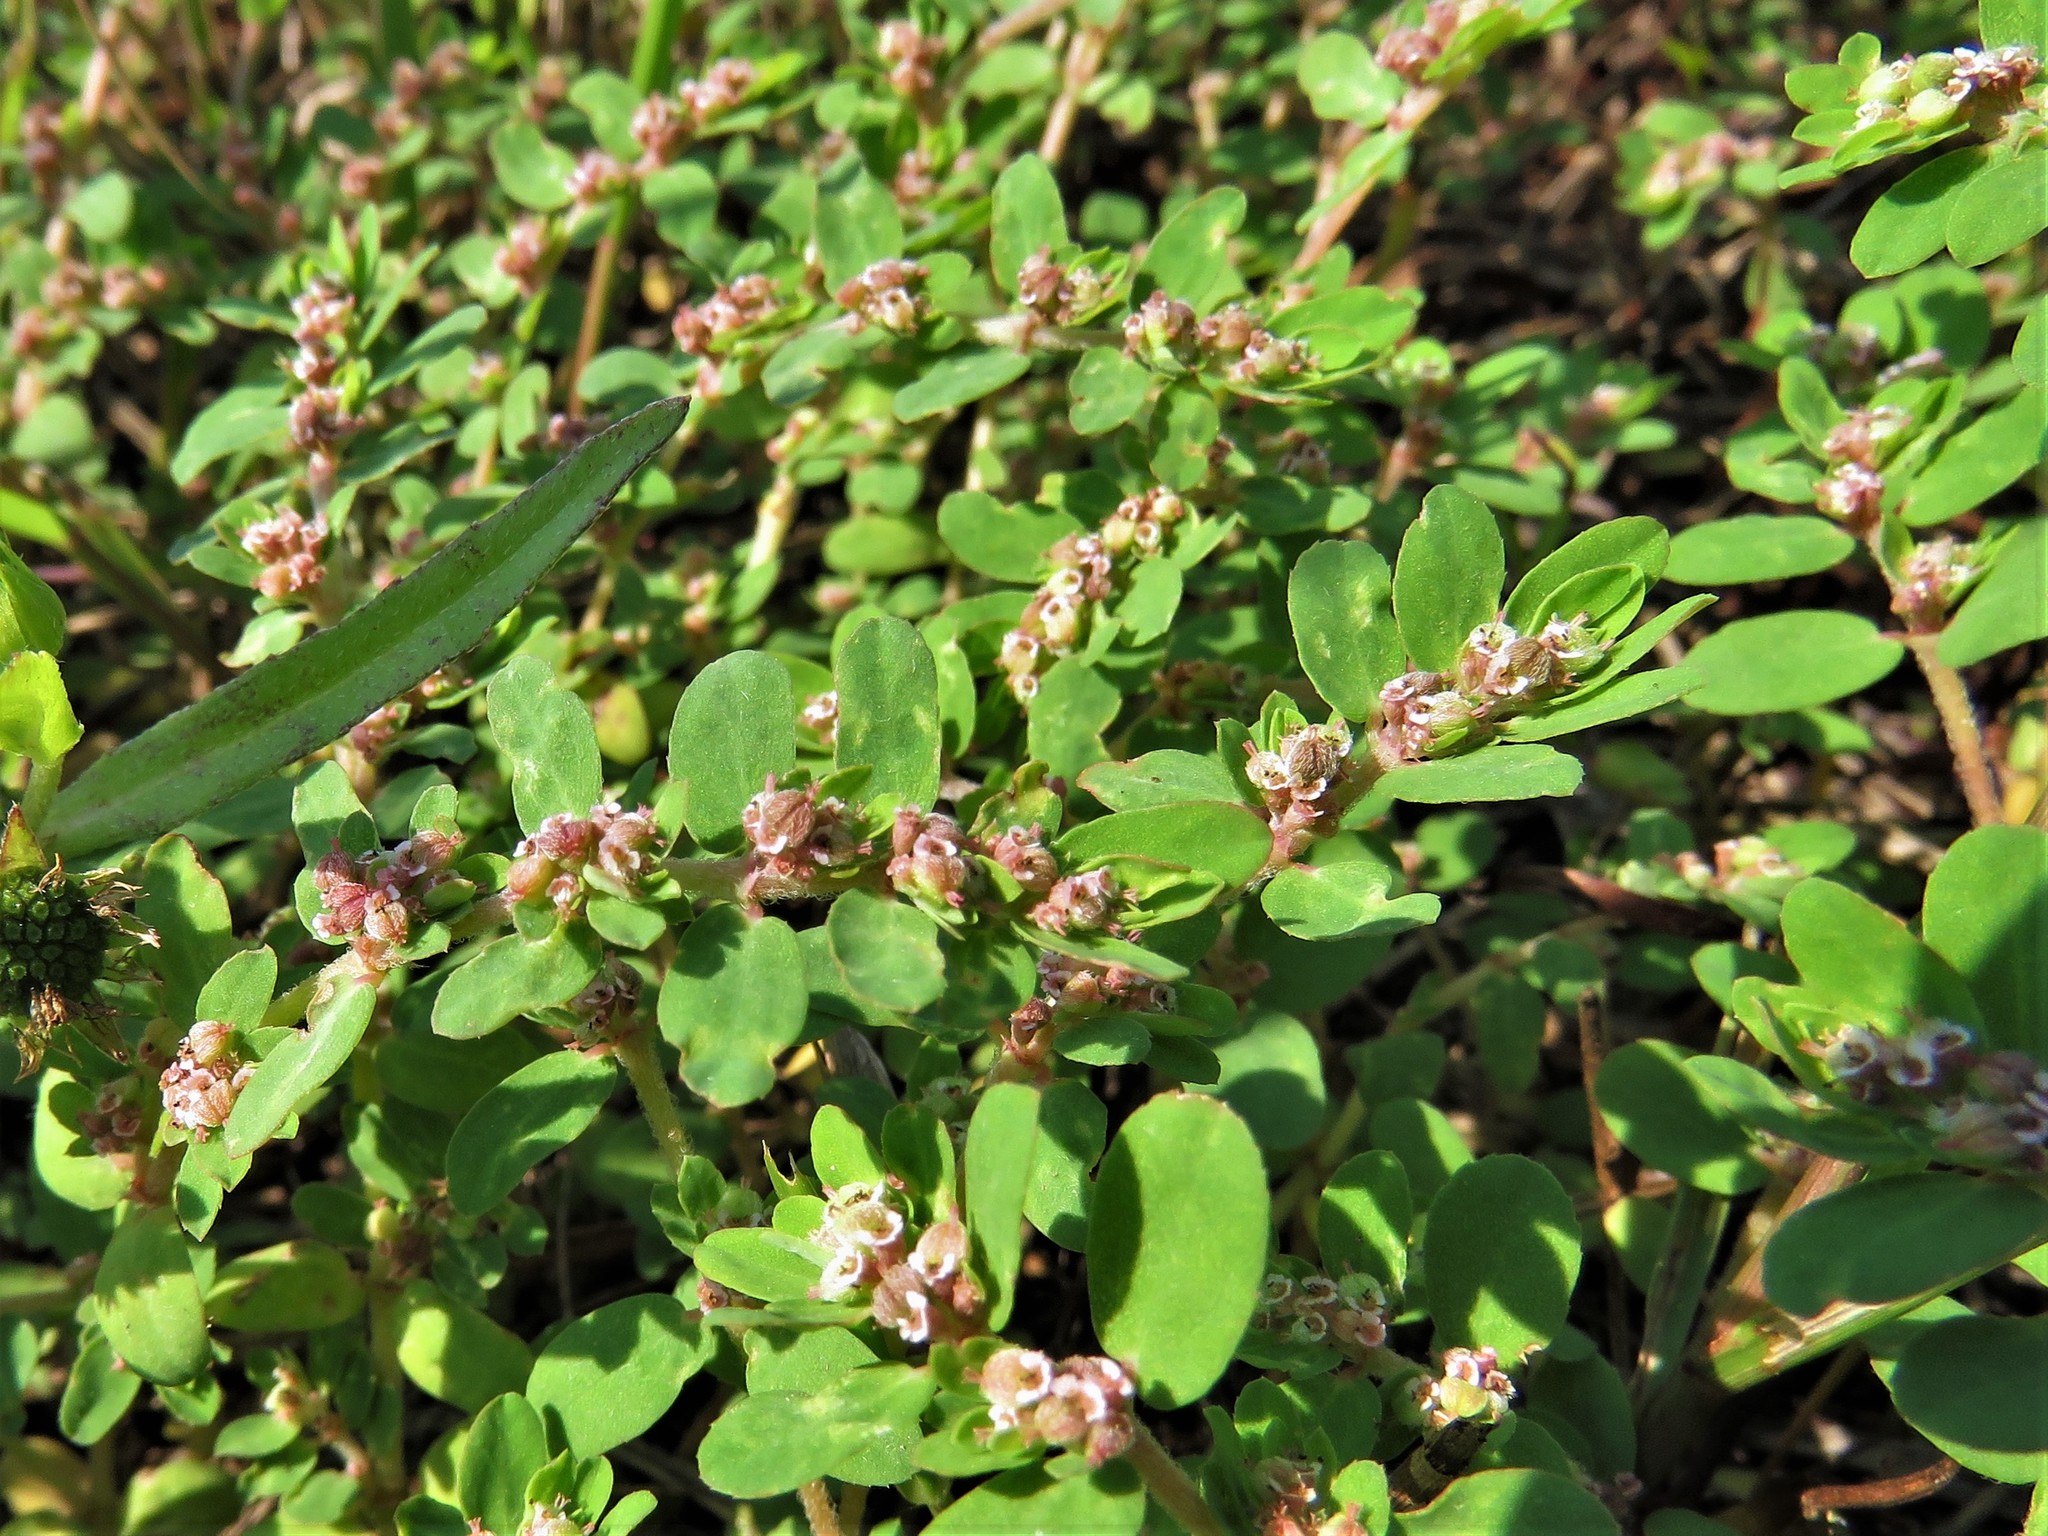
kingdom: Plantae
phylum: Tracheophyta
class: Magnoliopsida
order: Malpighiales
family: Euphorbiaceae
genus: Euphorbia
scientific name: Euphorbia humistrata
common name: Hairy spreading spurge
